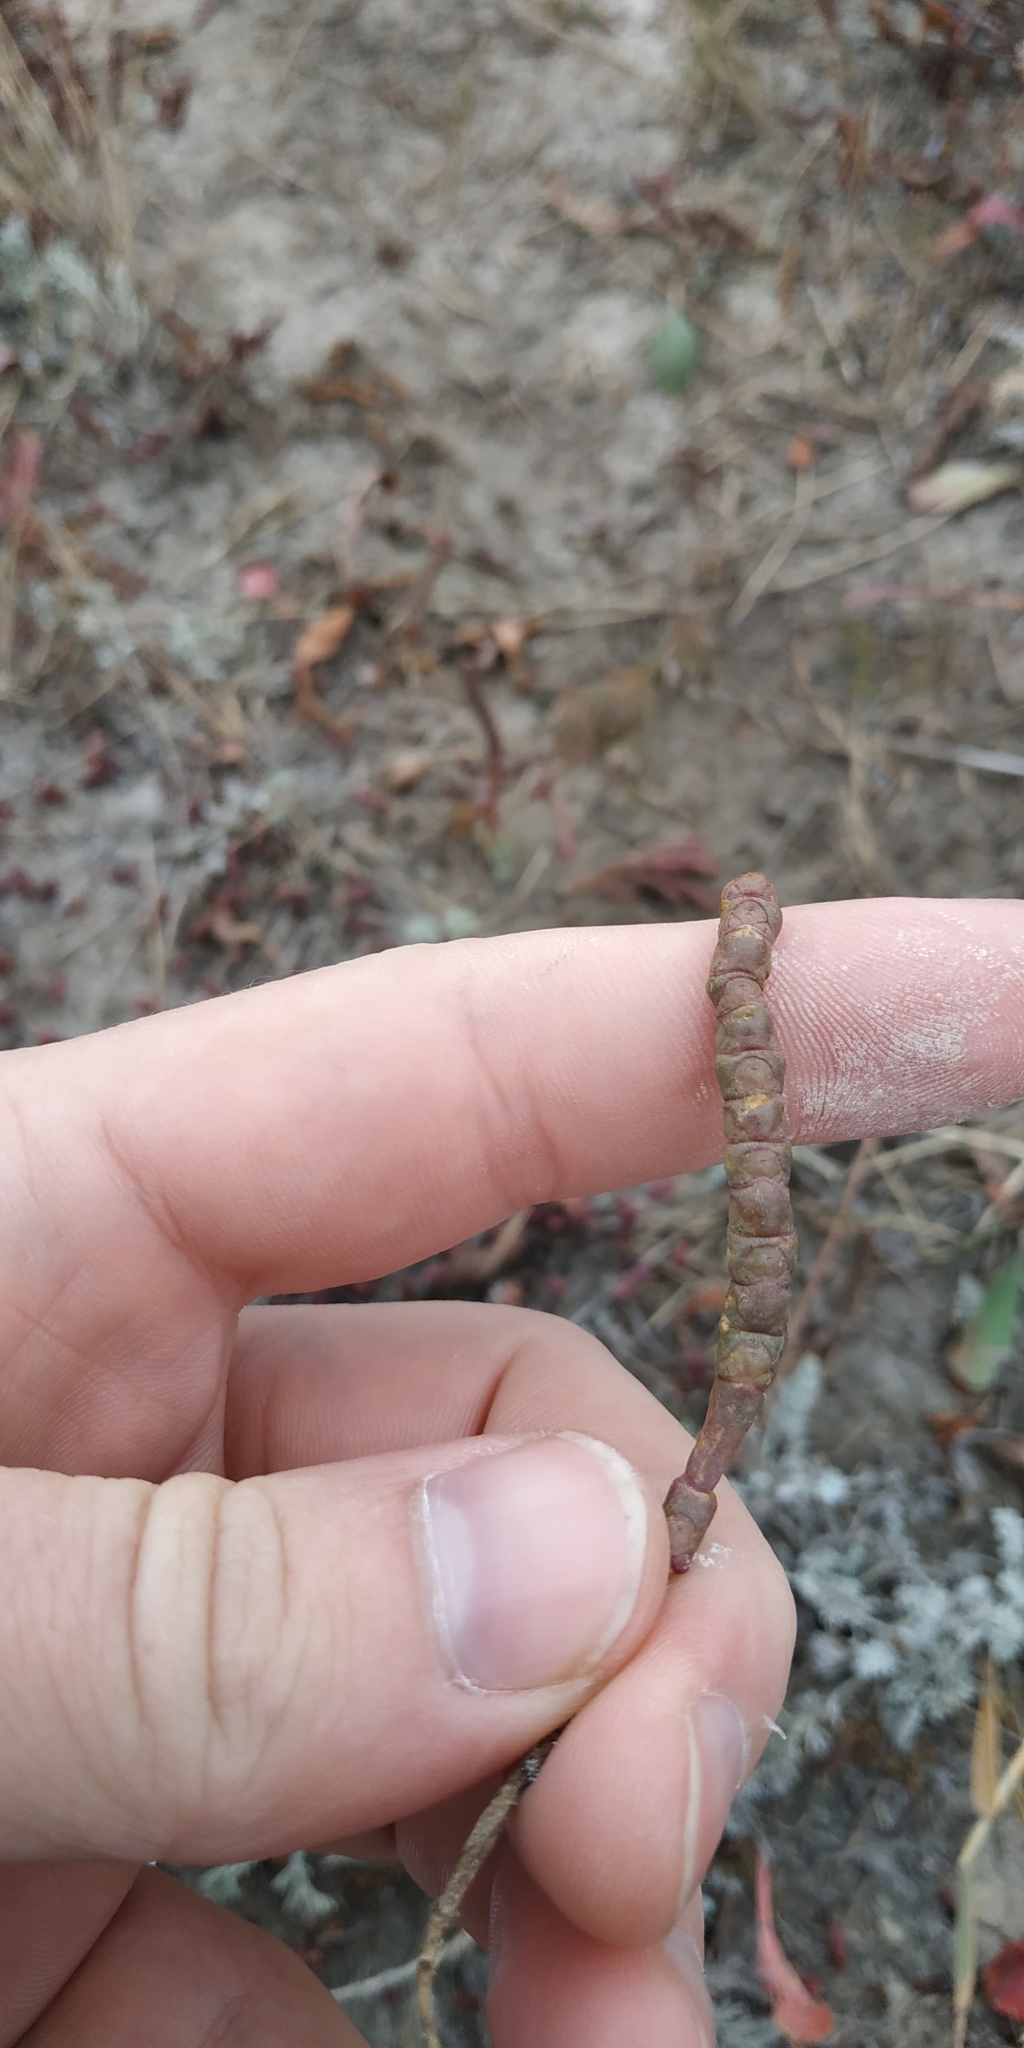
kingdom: Plantae
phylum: Tracheophyta
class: Magnoliopsida
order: Caryophyllales
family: Amaranthaceae
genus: Salicornia
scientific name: Salicornia perennans
